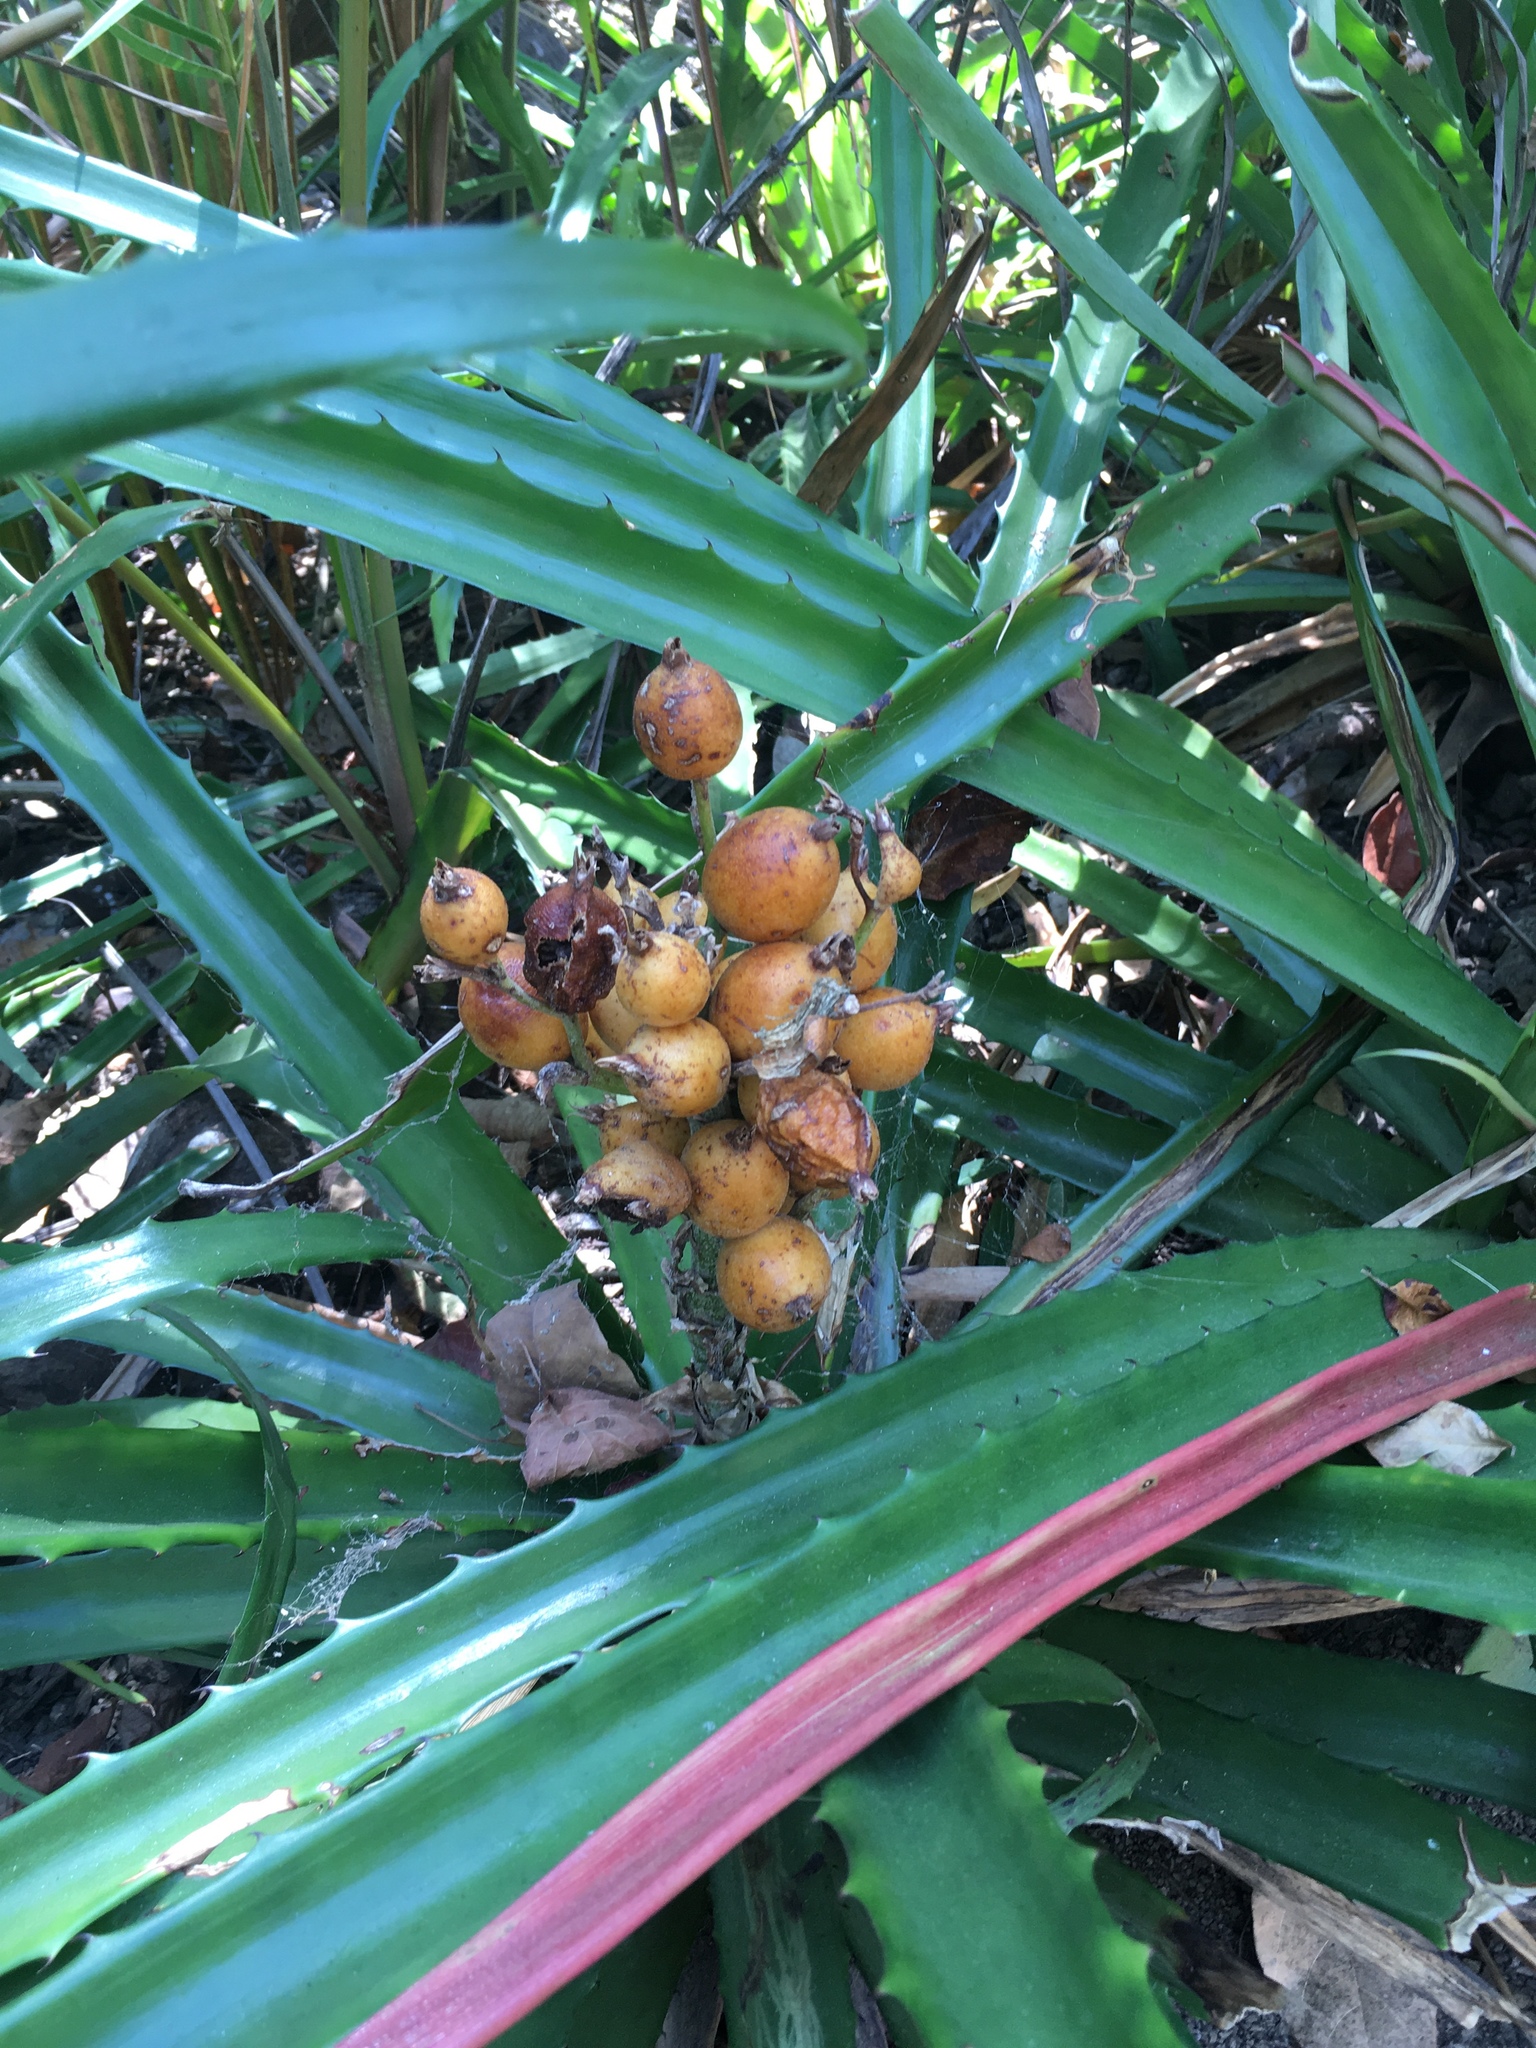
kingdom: Plantae
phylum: Tracheophyta
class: Liliopsida
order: Poales
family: Bromeliaceae
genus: Bromelia
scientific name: Bromelia pinguin
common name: Pinguin
